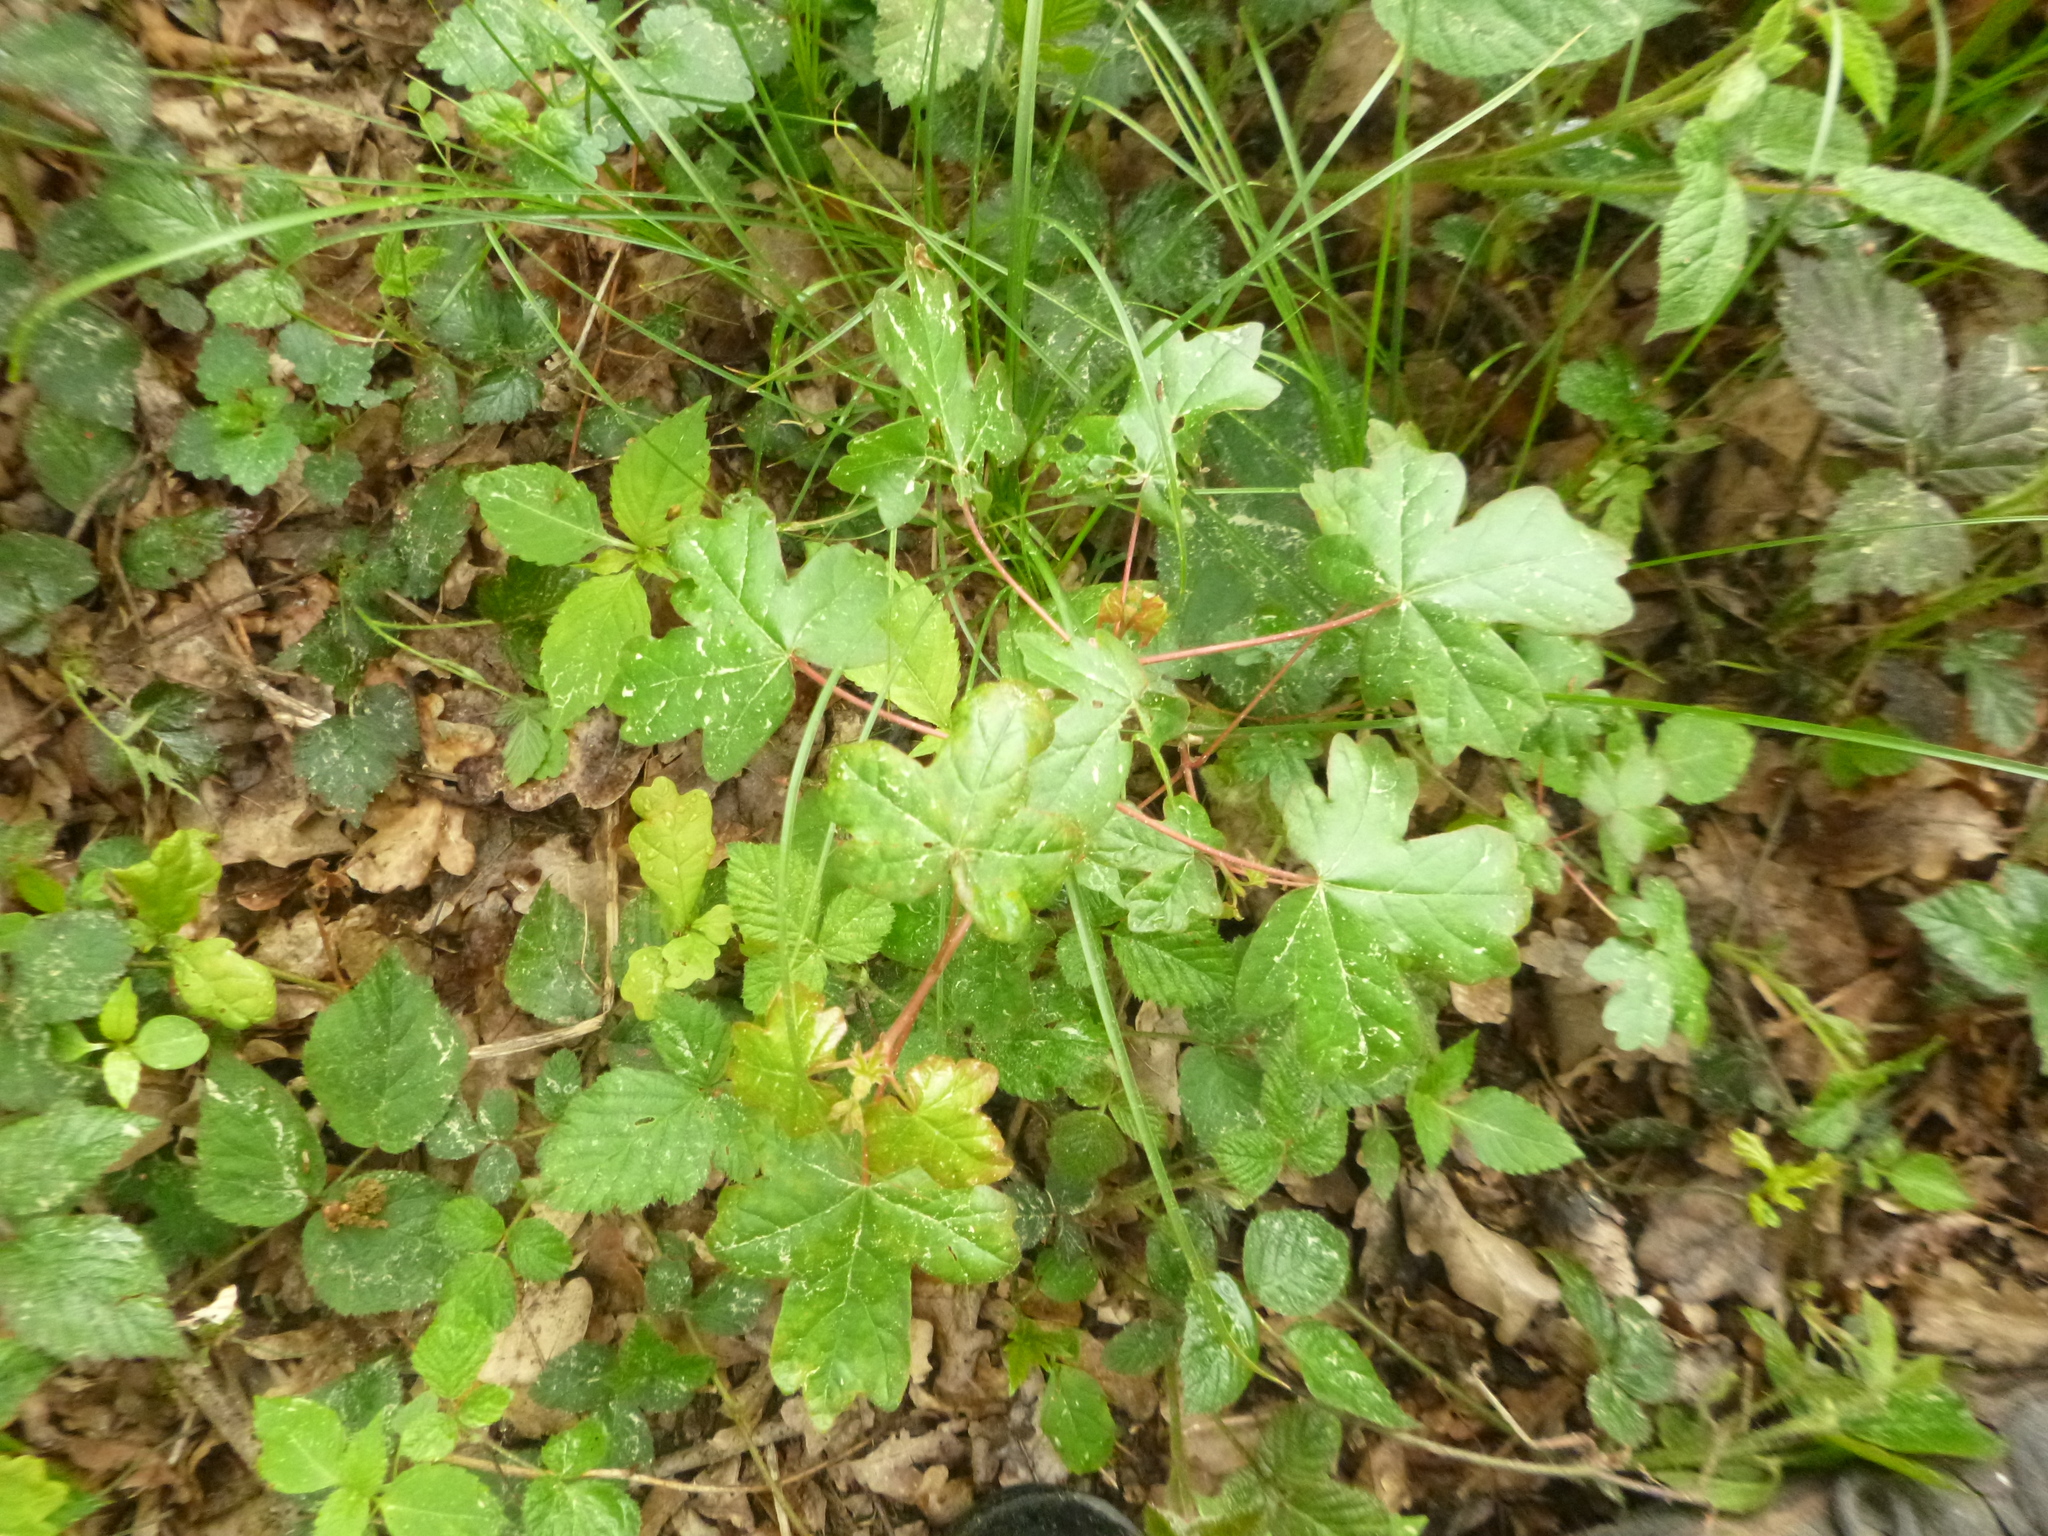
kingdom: Plantae
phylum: Tracheophyta
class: Magnoliopsida
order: Sapindales
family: Sapindaceae
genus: Acer
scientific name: Acer campestre
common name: Field maple
